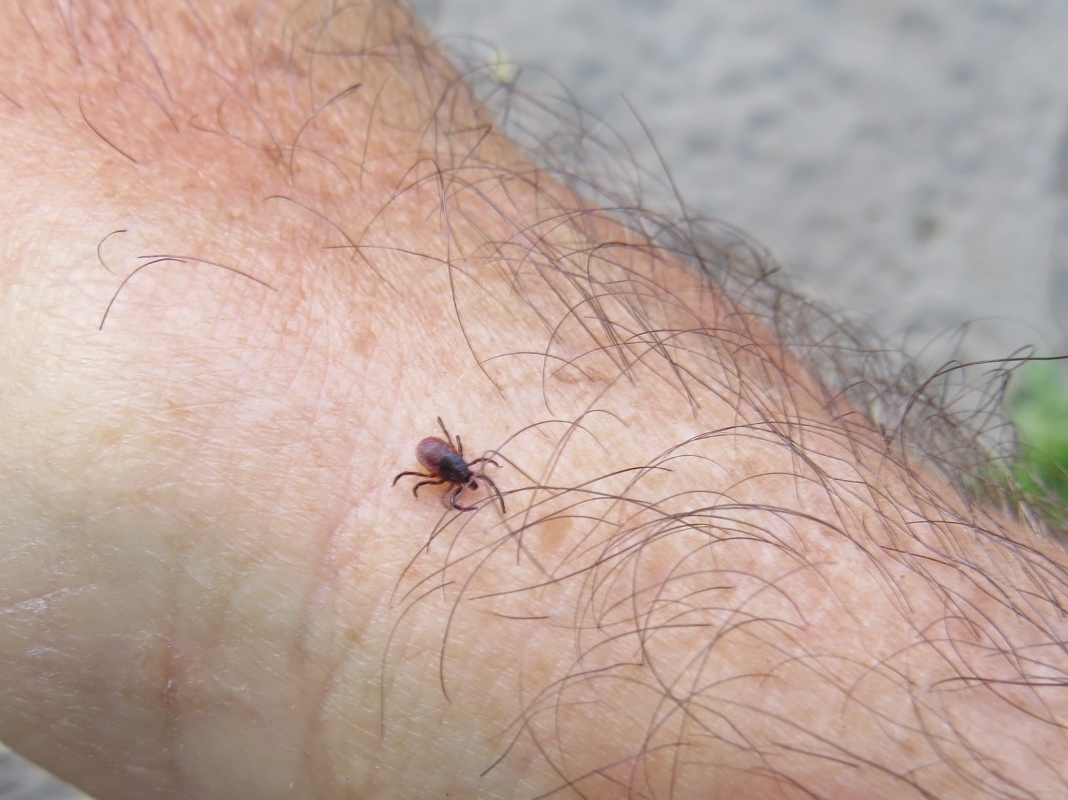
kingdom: Animalia
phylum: Arthropoda
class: Arachnida
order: Ixodida
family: Ixodidae
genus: Ixodes
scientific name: Ixodes pacificus
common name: California black-legged tick
